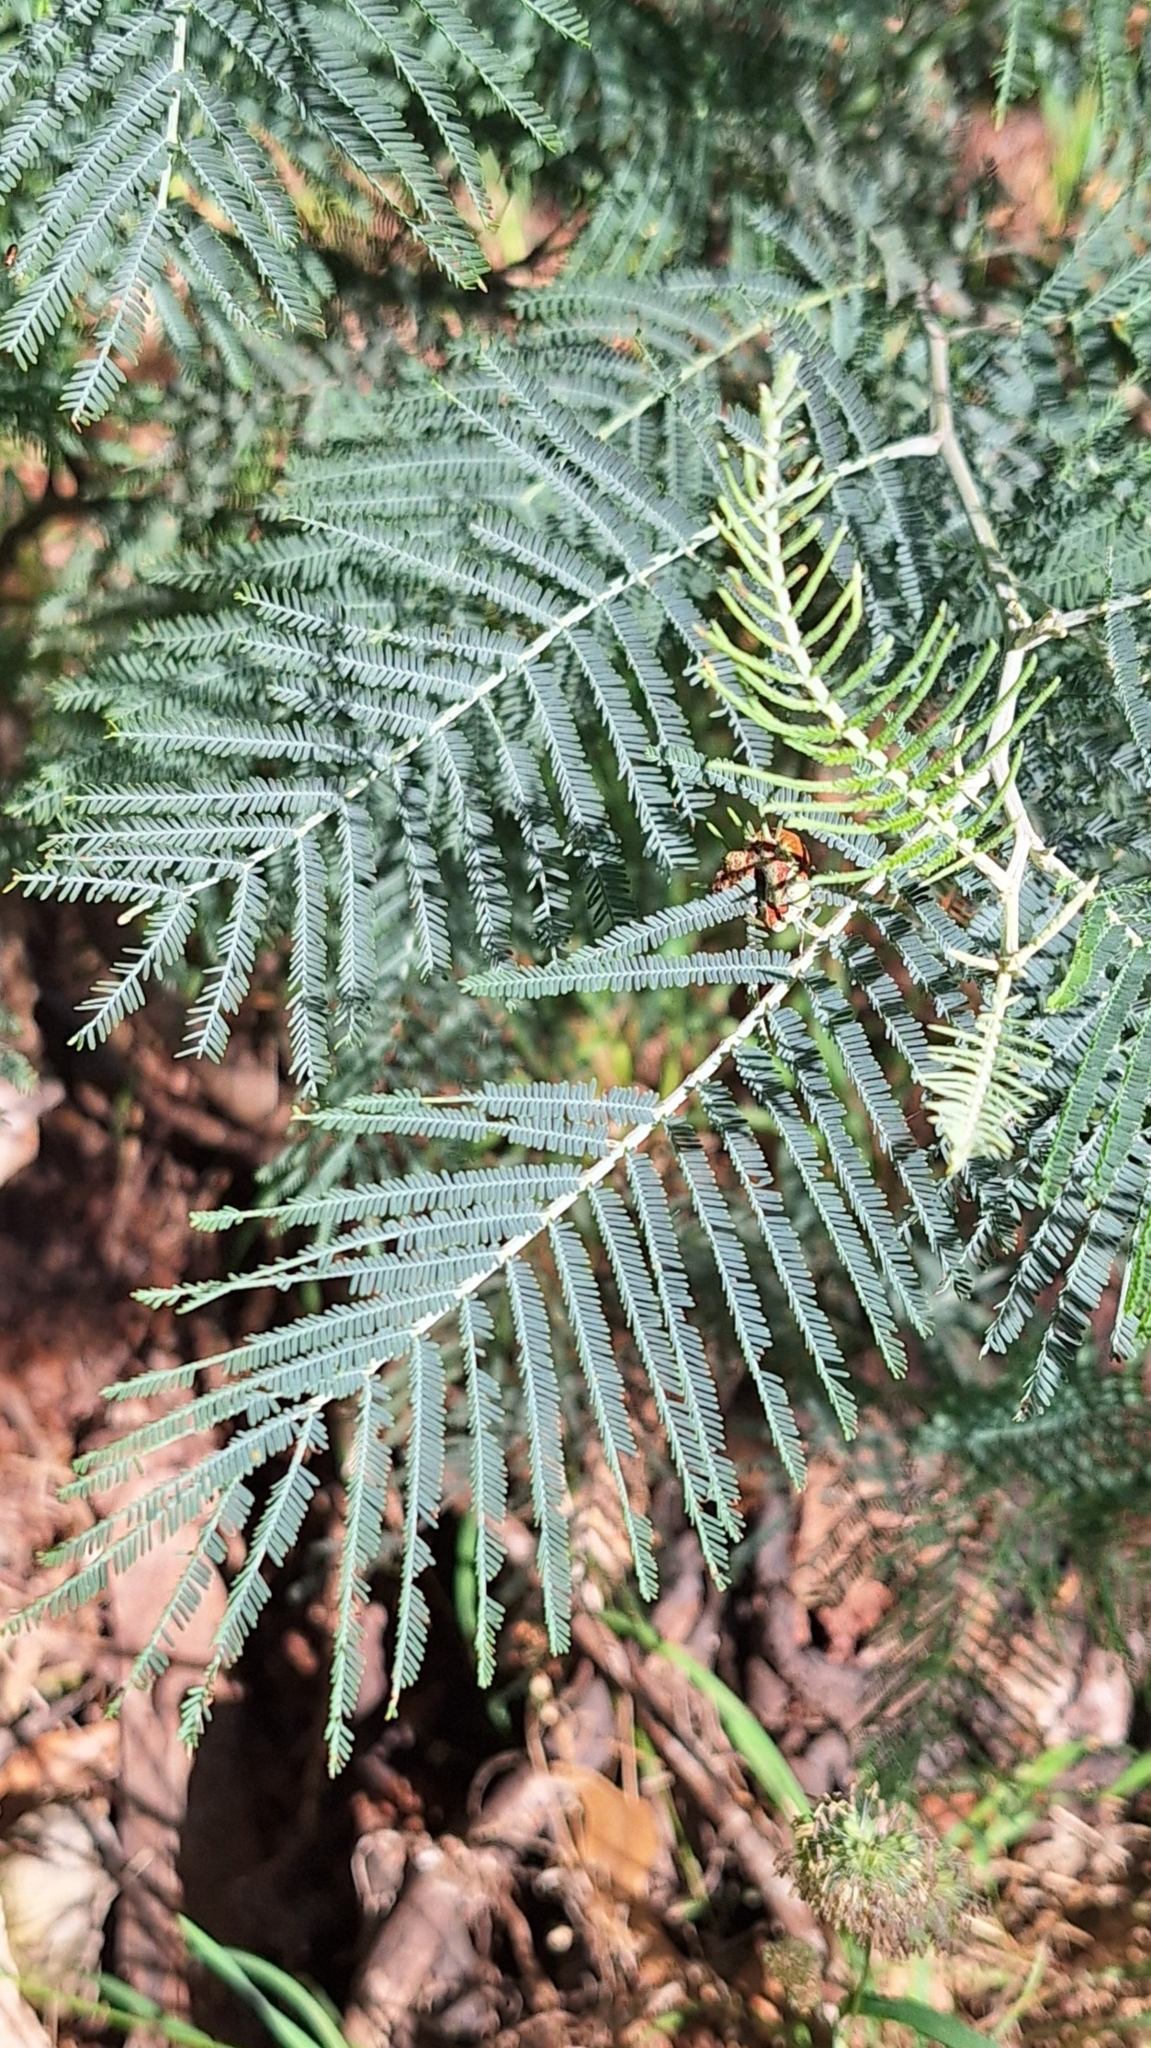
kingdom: Plantae
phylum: Tracheophyta
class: Magnoliopsida
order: Fabales
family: Fabaceae
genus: Acacia
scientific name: Acacia dealbata
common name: Silver wattle
